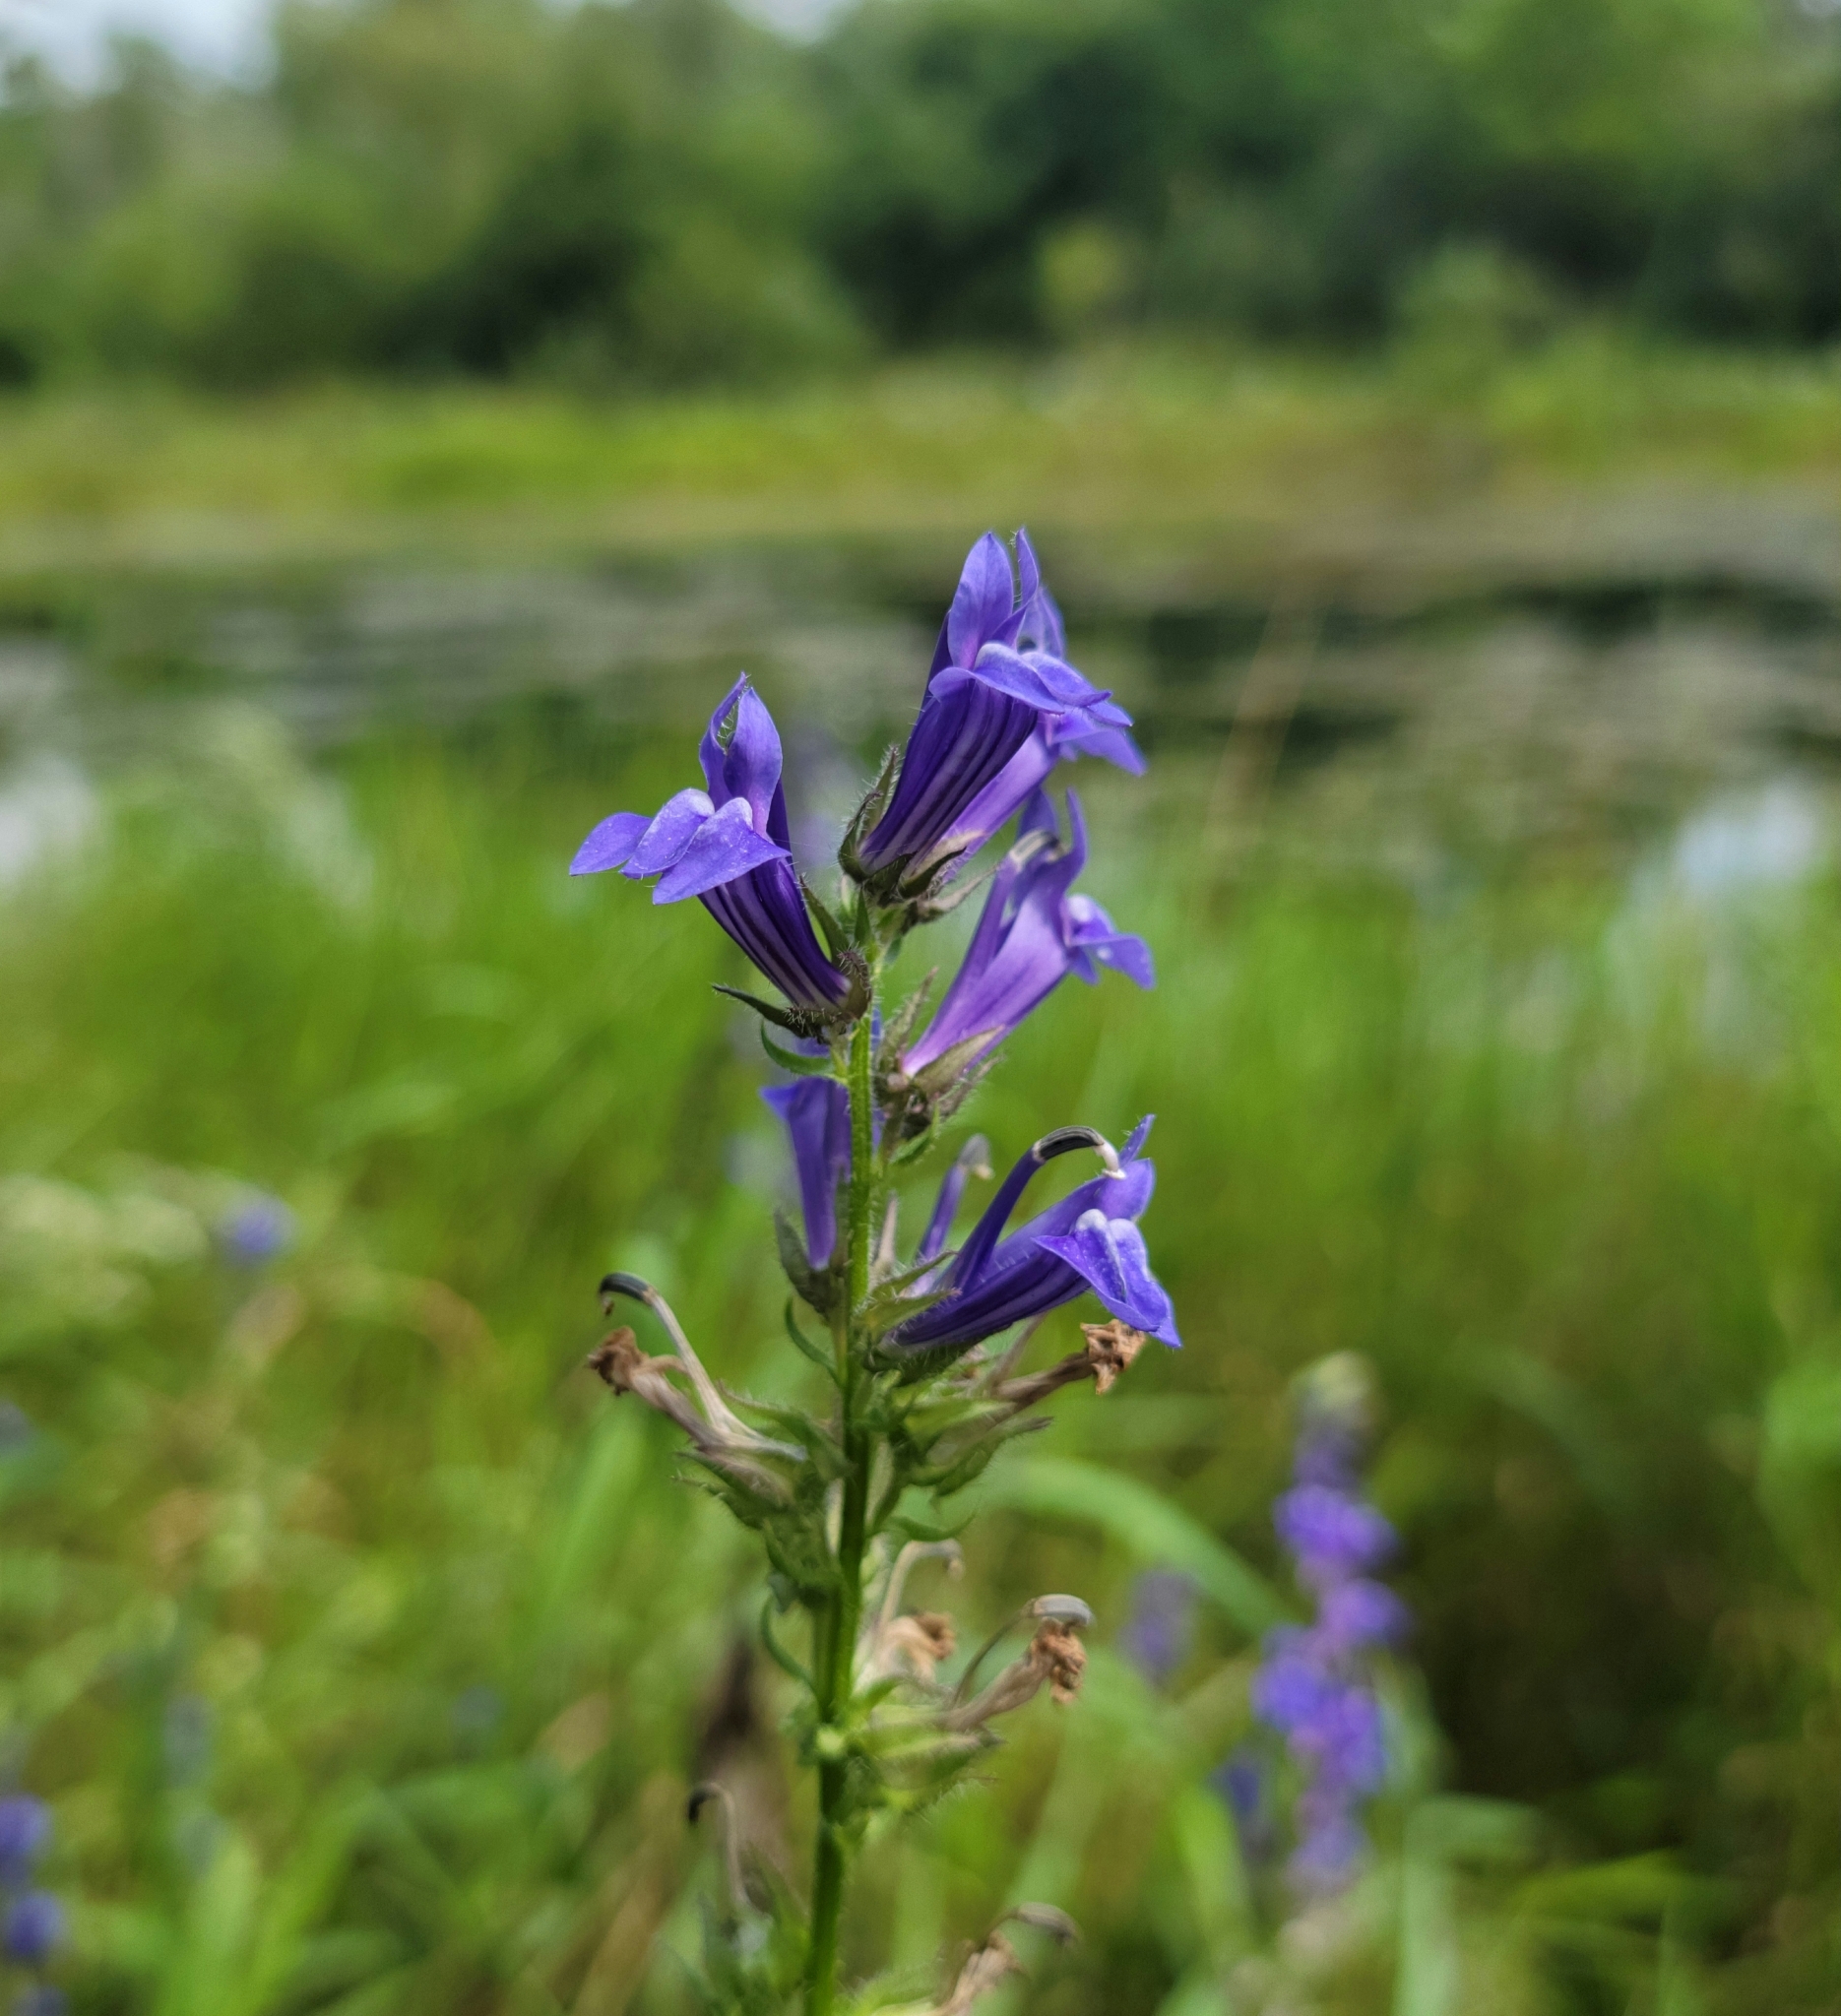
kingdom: Plantae
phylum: Tracheophyta
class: Magnoliopsida
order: Asterales
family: Campanulaceae
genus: Lobelia
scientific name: Lobelia siphilitica
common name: Great lobelia
